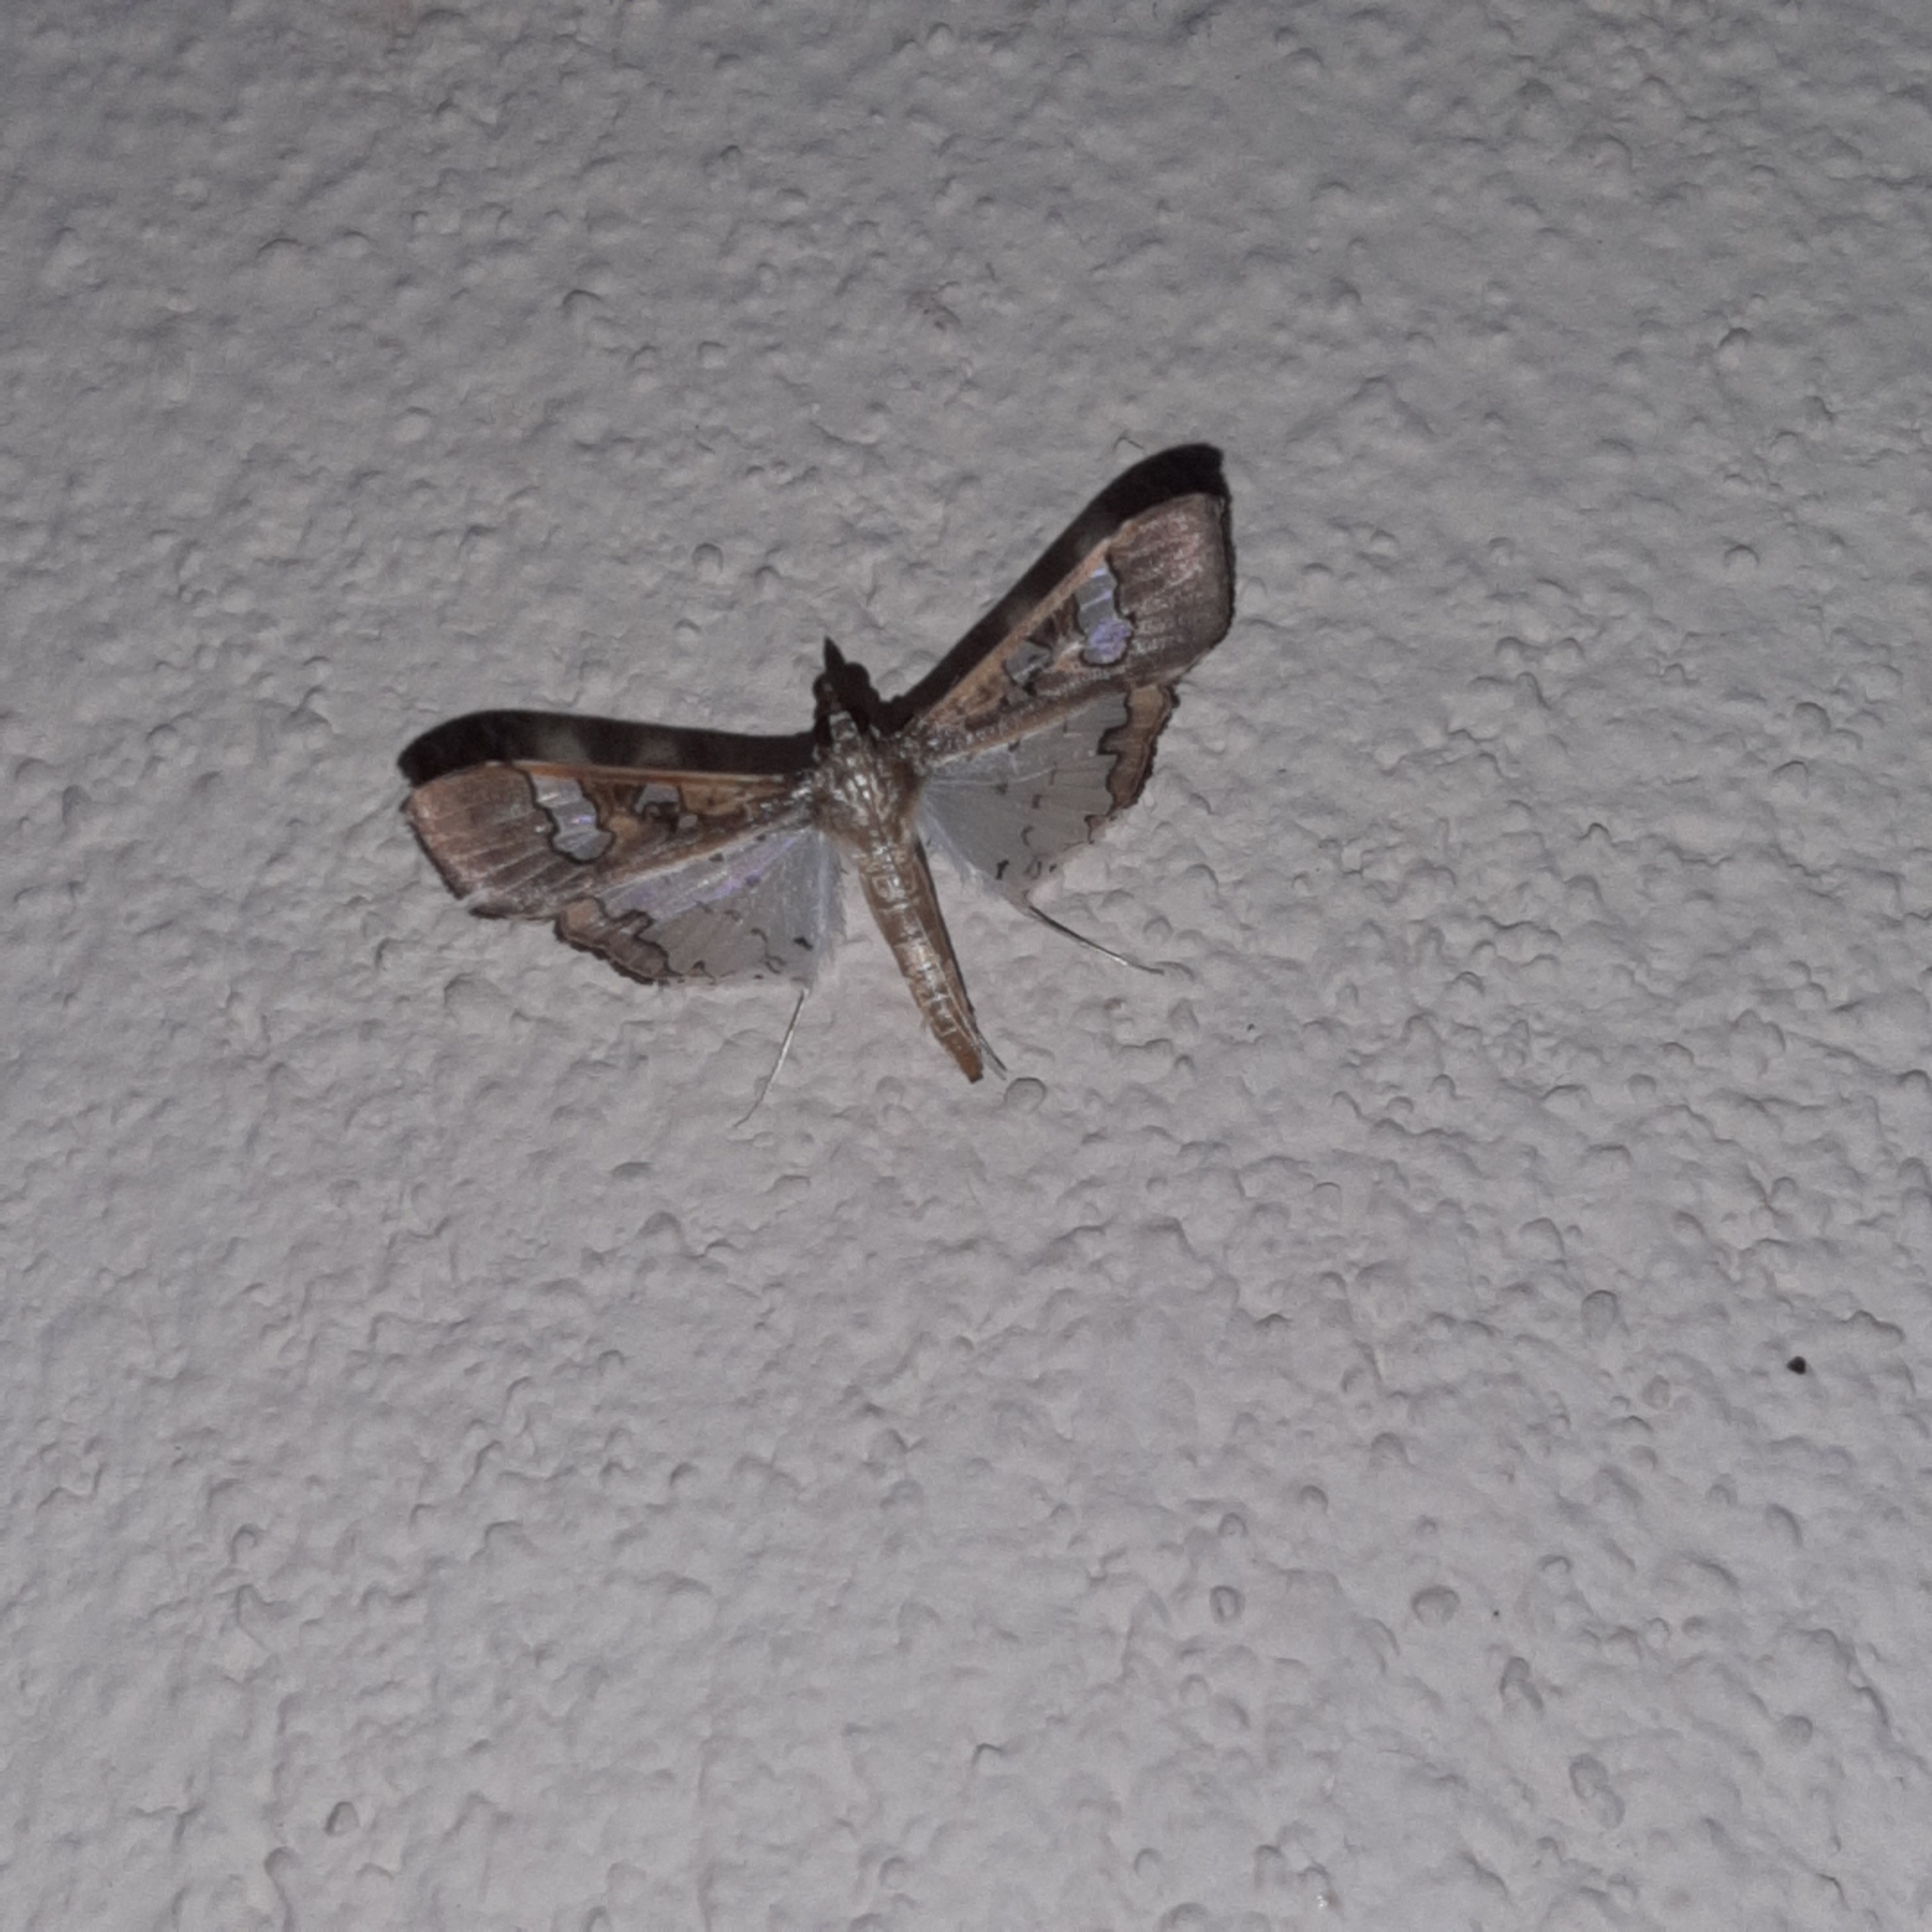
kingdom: Animalia
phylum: Arthropoda
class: Insecta
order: Lepidoptera
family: Crambidae
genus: Maruca
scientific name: Maruca vitrata
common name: Maruca pod borer
